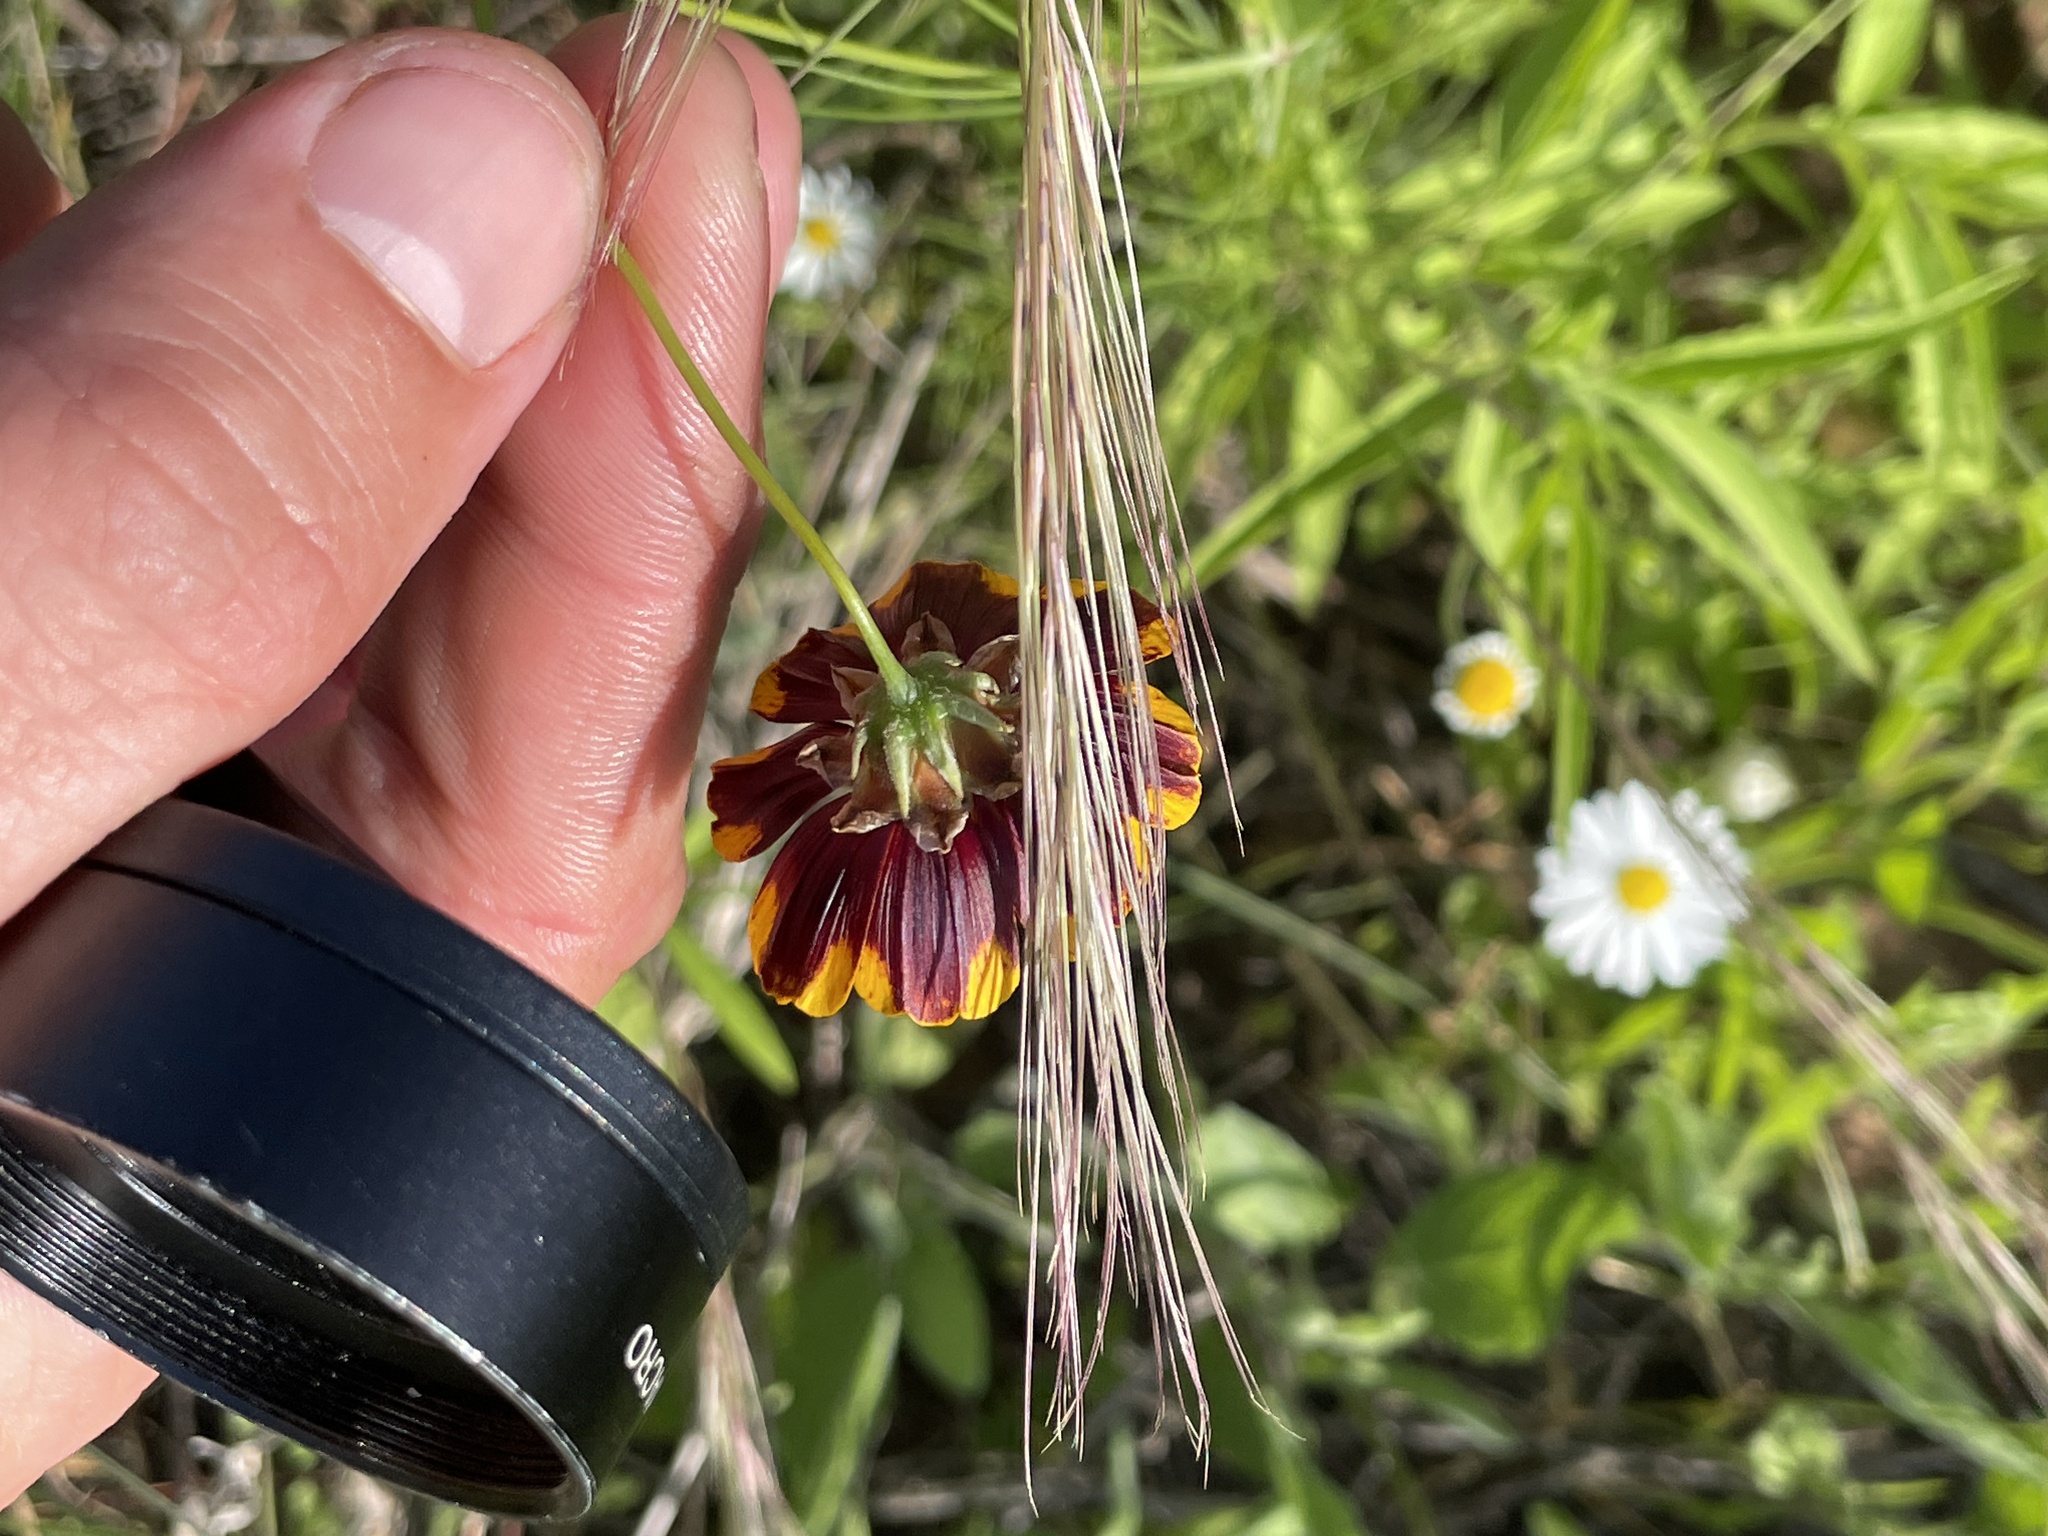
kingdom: Plantae
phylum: Tracheophyta
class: Magnoliopsida
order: Asterales
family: Asteraceae
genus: Thelesperma
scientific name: Thelesperma burridgeanum
